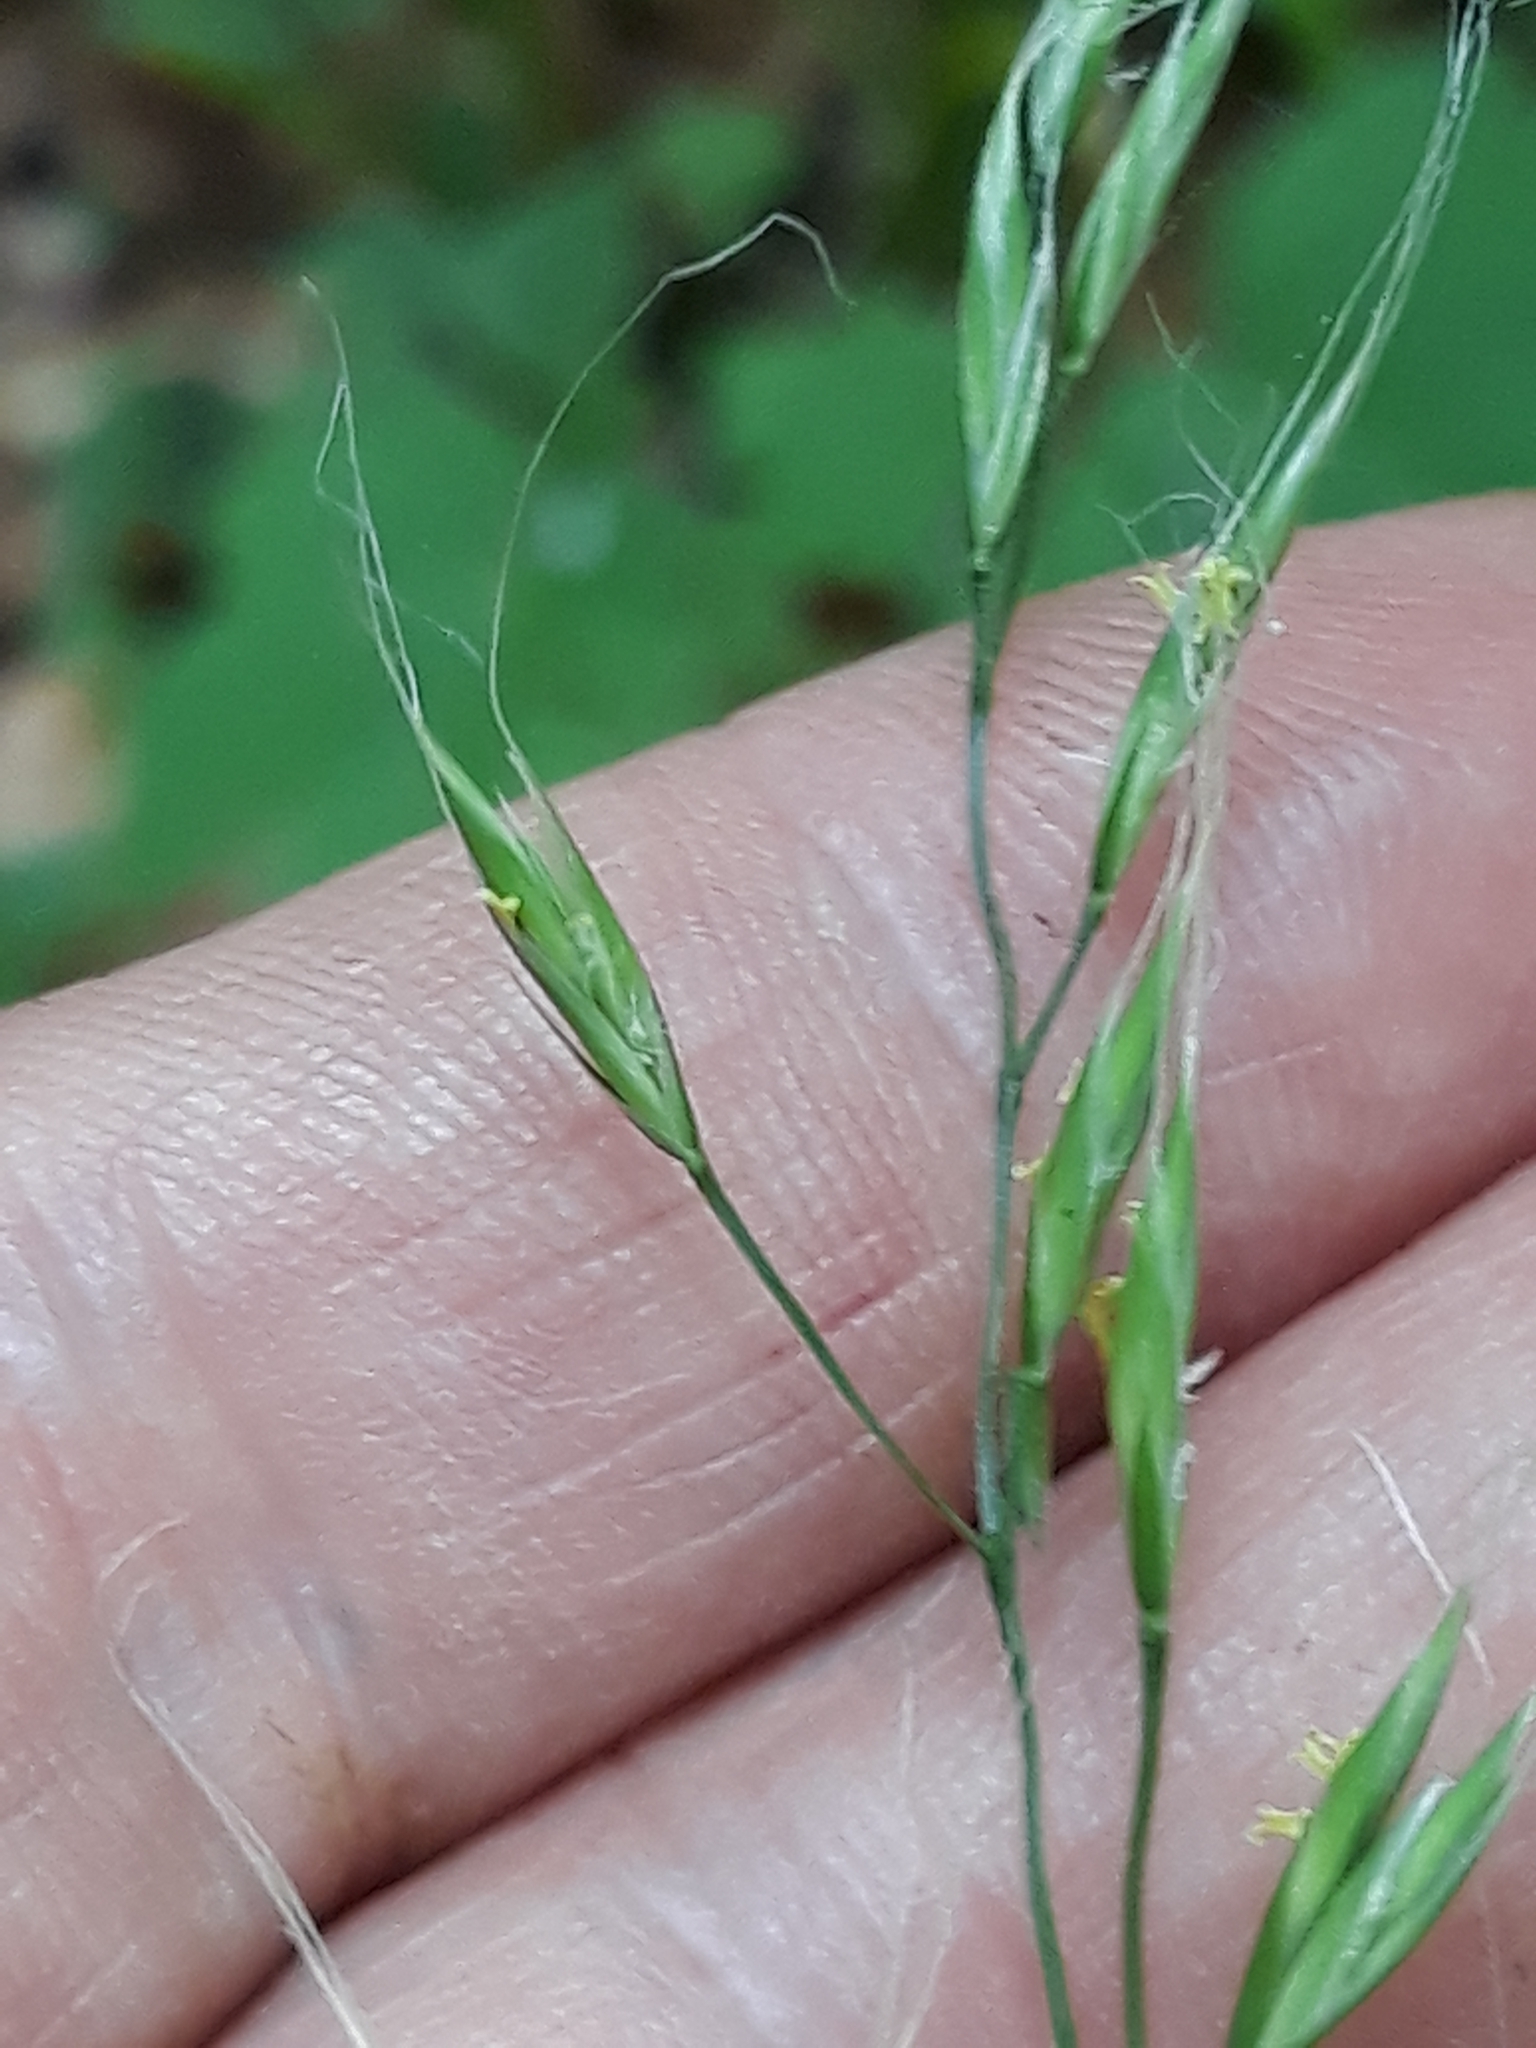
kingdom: Plantae
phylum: Tracheophyta
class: Liliopsida
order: Poales
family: Poaceae
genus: Lolium
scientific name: Lolium giganteum
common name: Giant fescue
